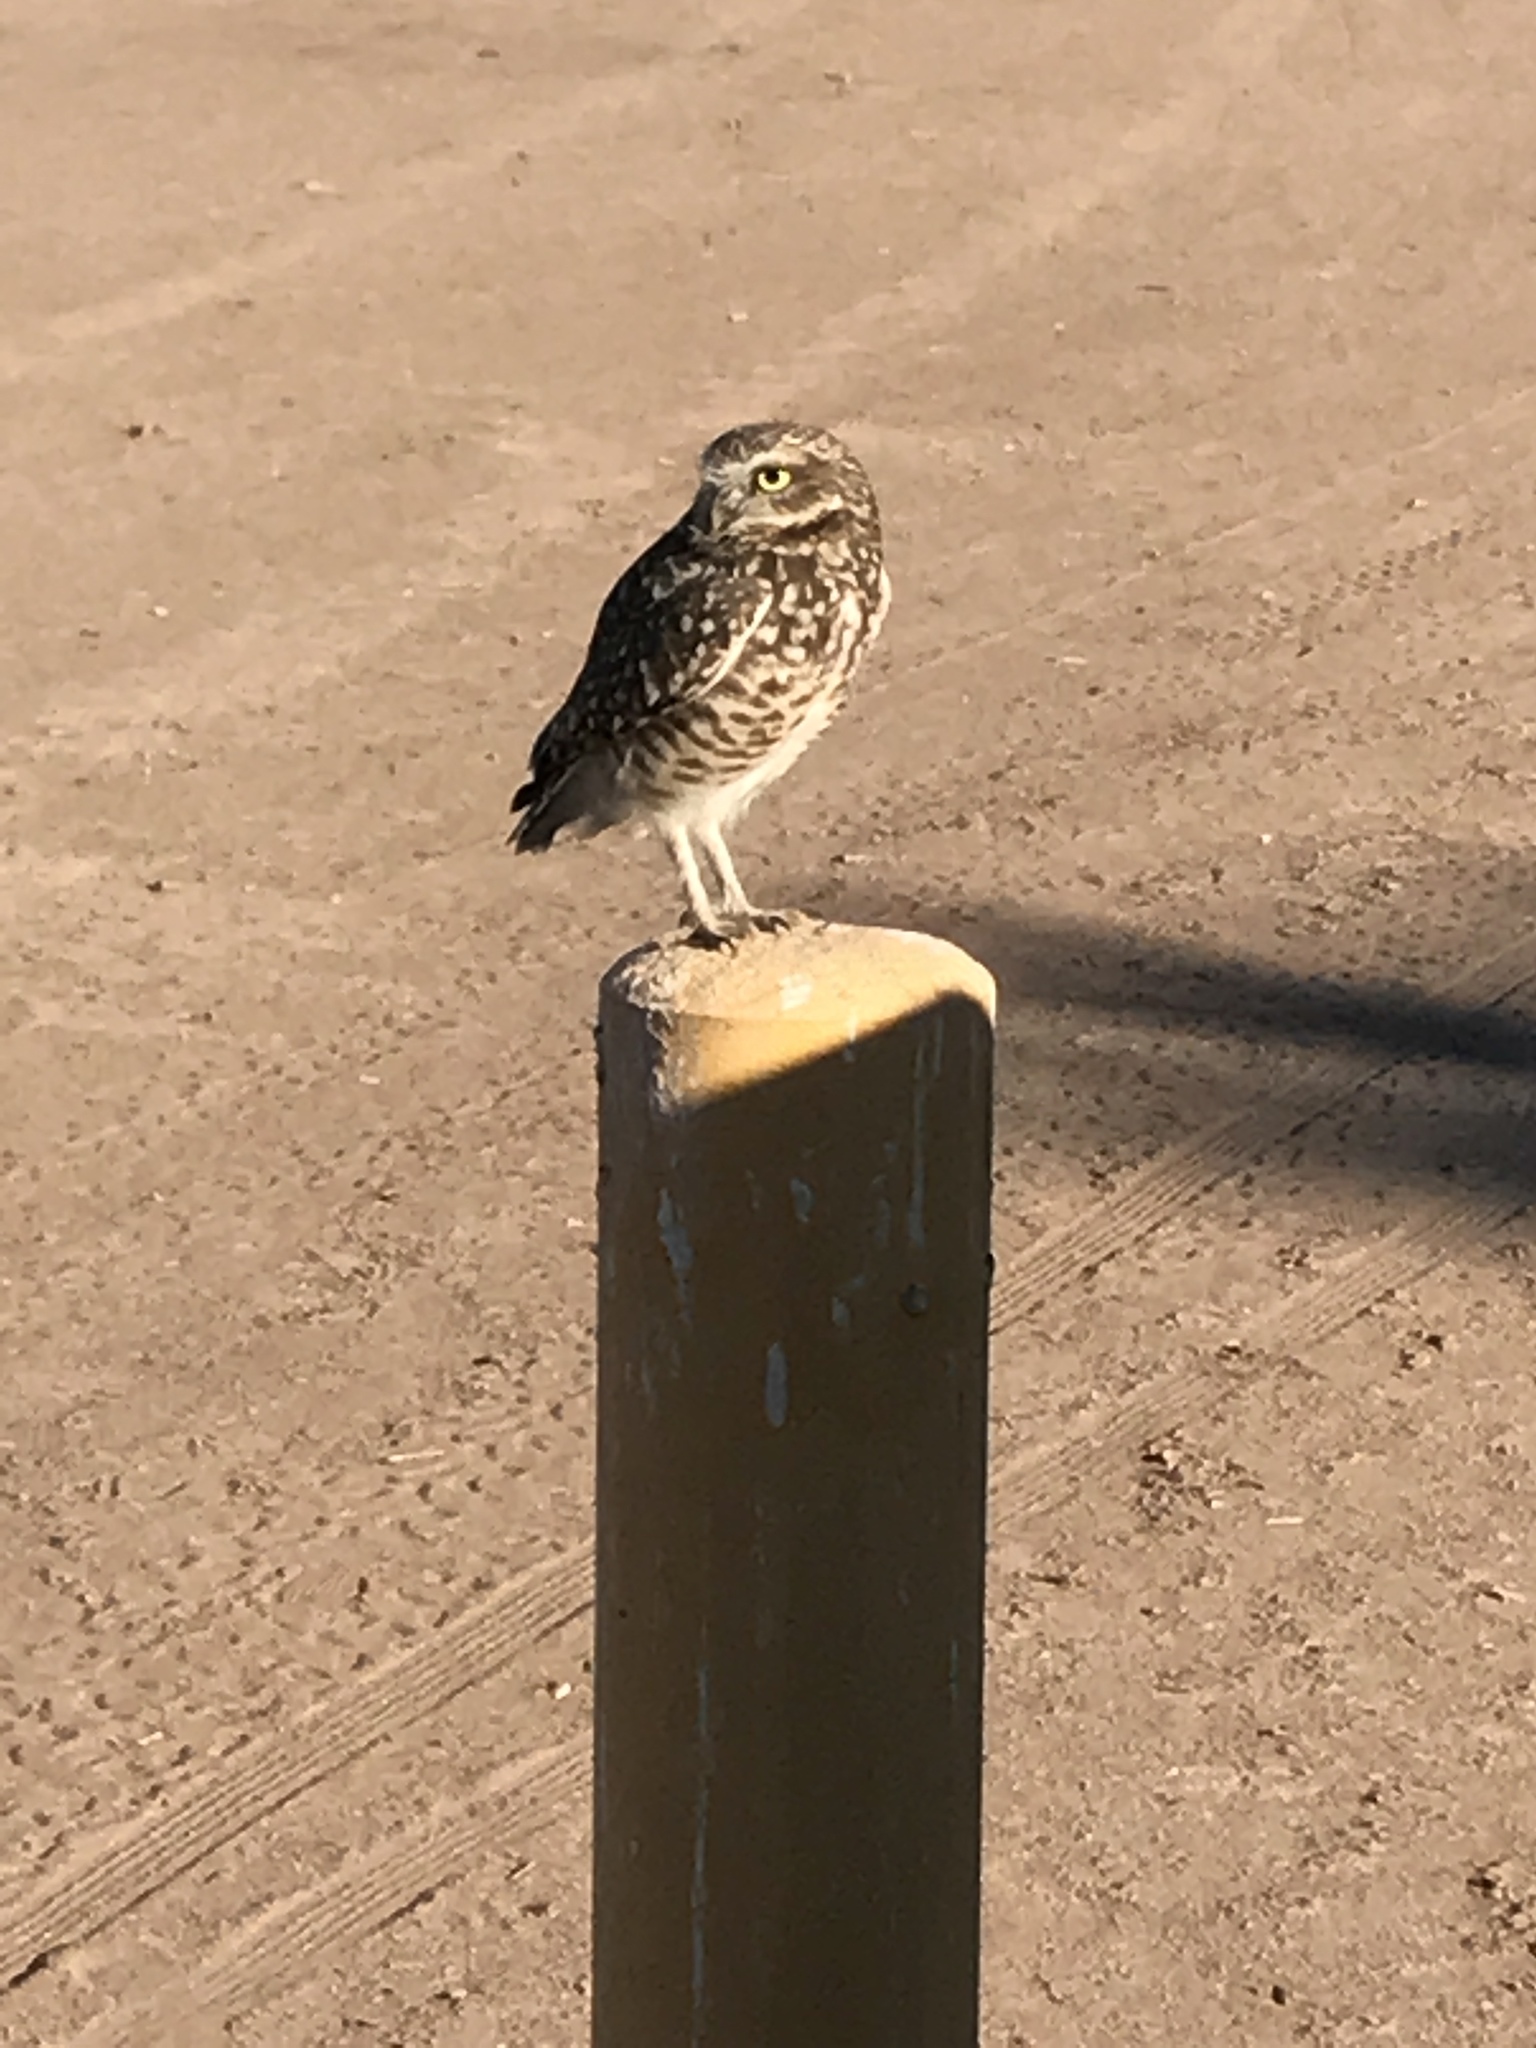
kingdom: Animalia
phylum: Chordata
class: Aves
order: Strigiformes
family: Strigidae
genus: Athene
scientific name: Athene cunicularia
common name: Burrowing owl
